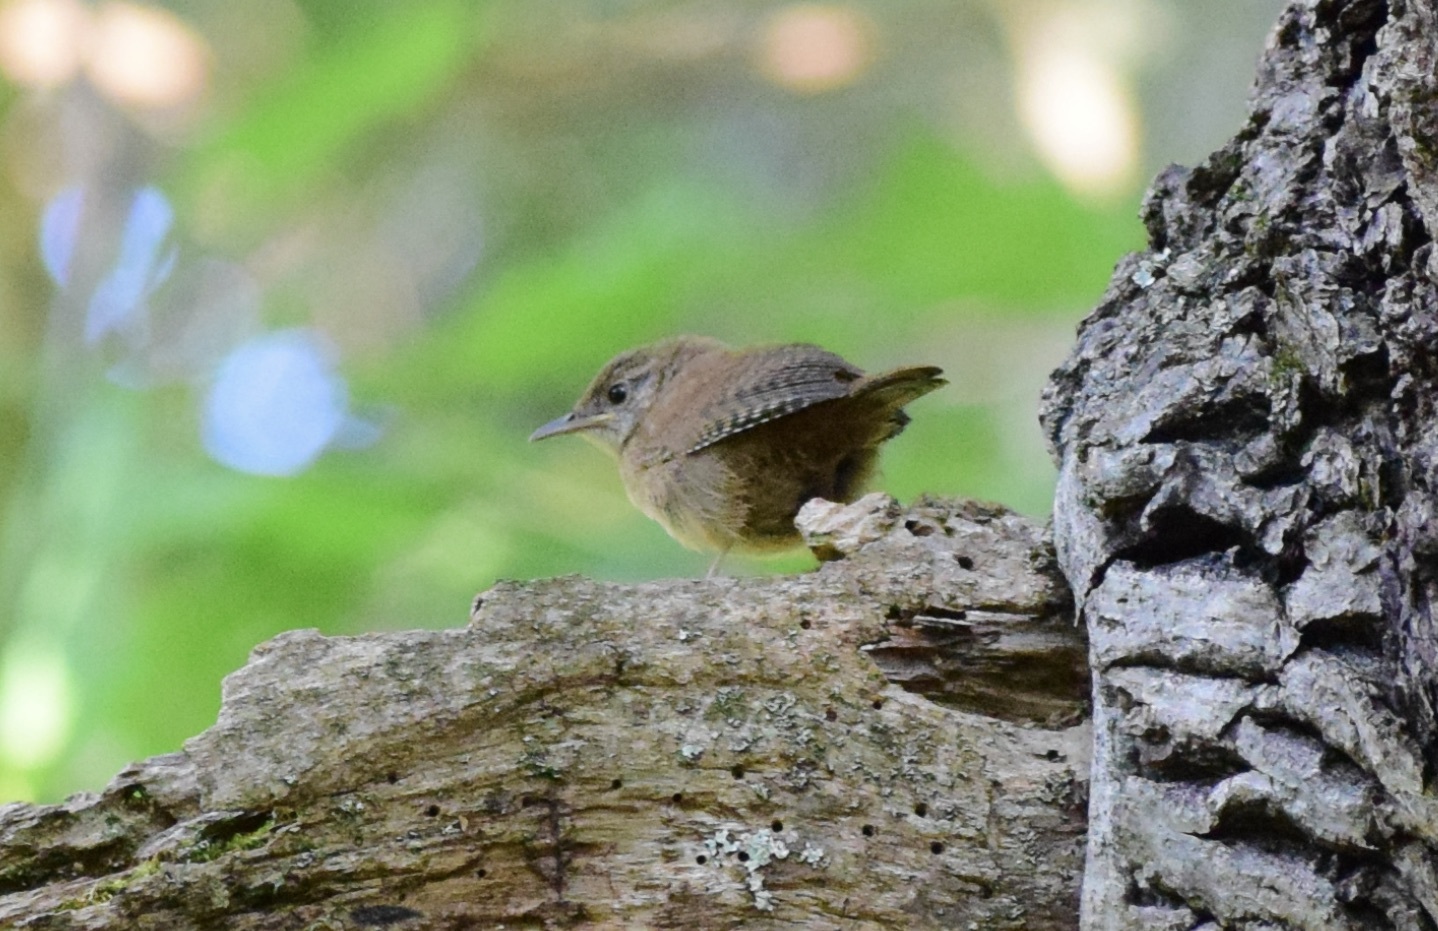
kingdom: Animalia
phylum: Chordata
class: Aves
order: Passeriformes
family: Troglodytidae
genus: Troglodytes
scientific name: Troglodytes aedon
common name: House wren
